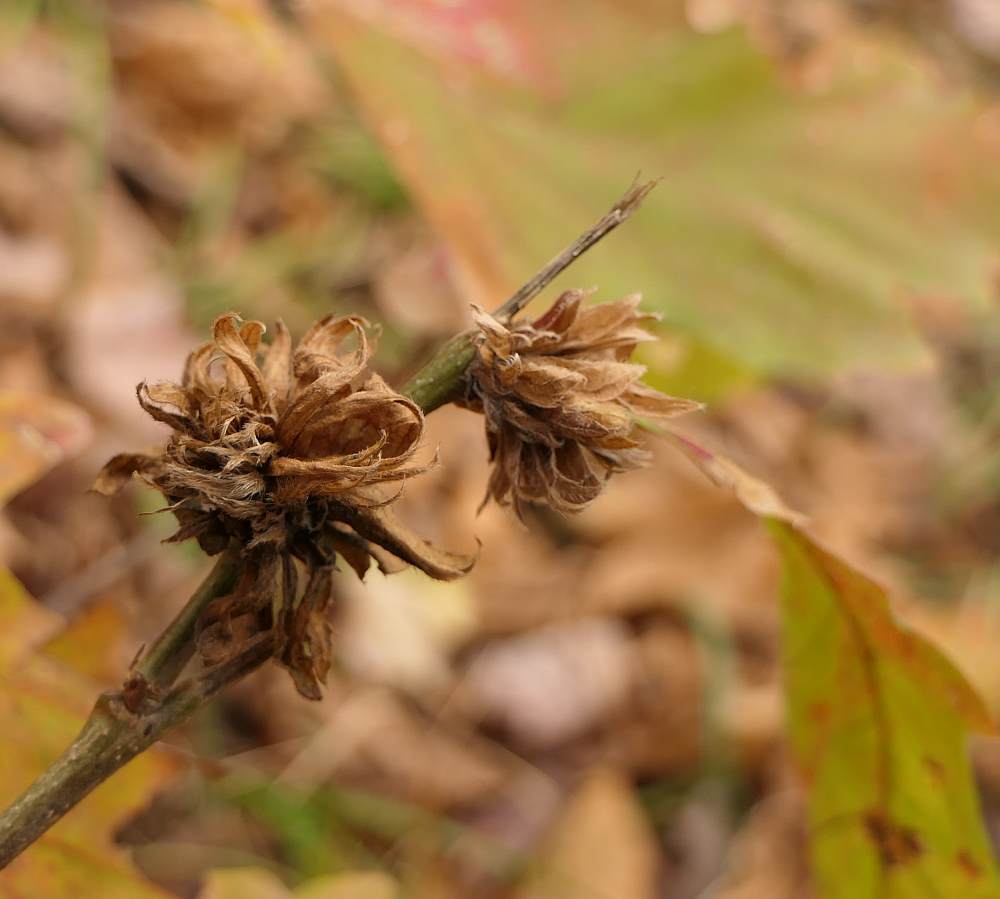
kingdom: Animalia
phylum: Arthropoda
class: Insecta
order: Hymenoptera
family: Cynipidae
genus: Andricus
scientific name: Andricus
